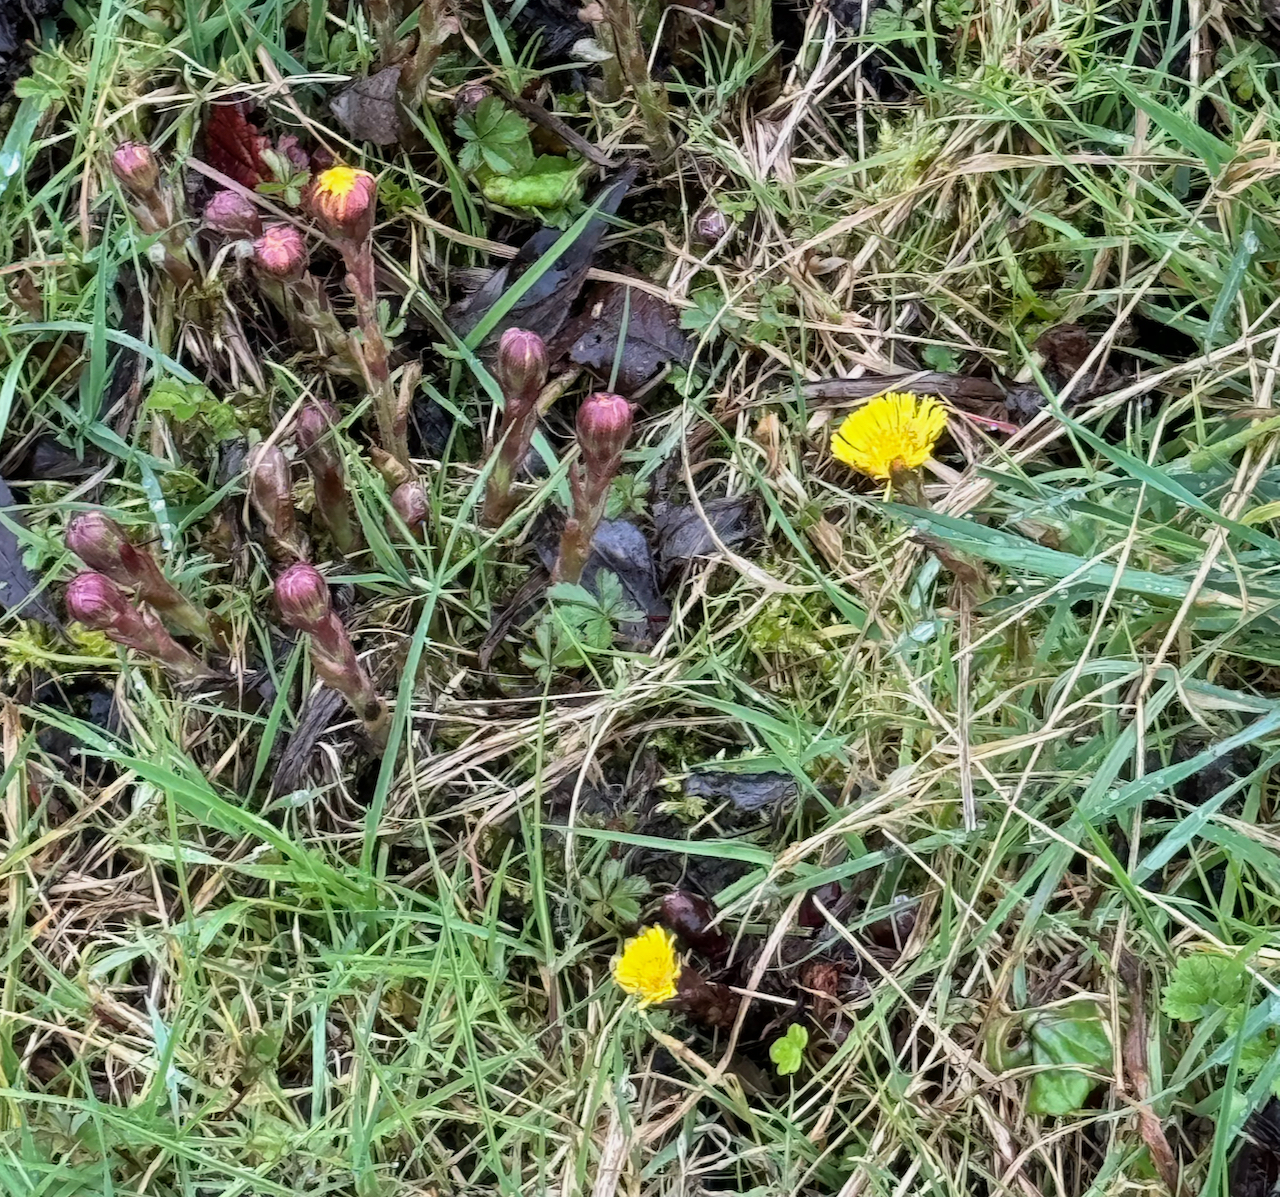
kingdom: Plantae
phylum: Tracheophyta
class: Magnoliopsida
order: Asterales
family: Asteraceae
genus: Tussilago
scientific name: Tussilago farfara
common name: Coltsfoot
